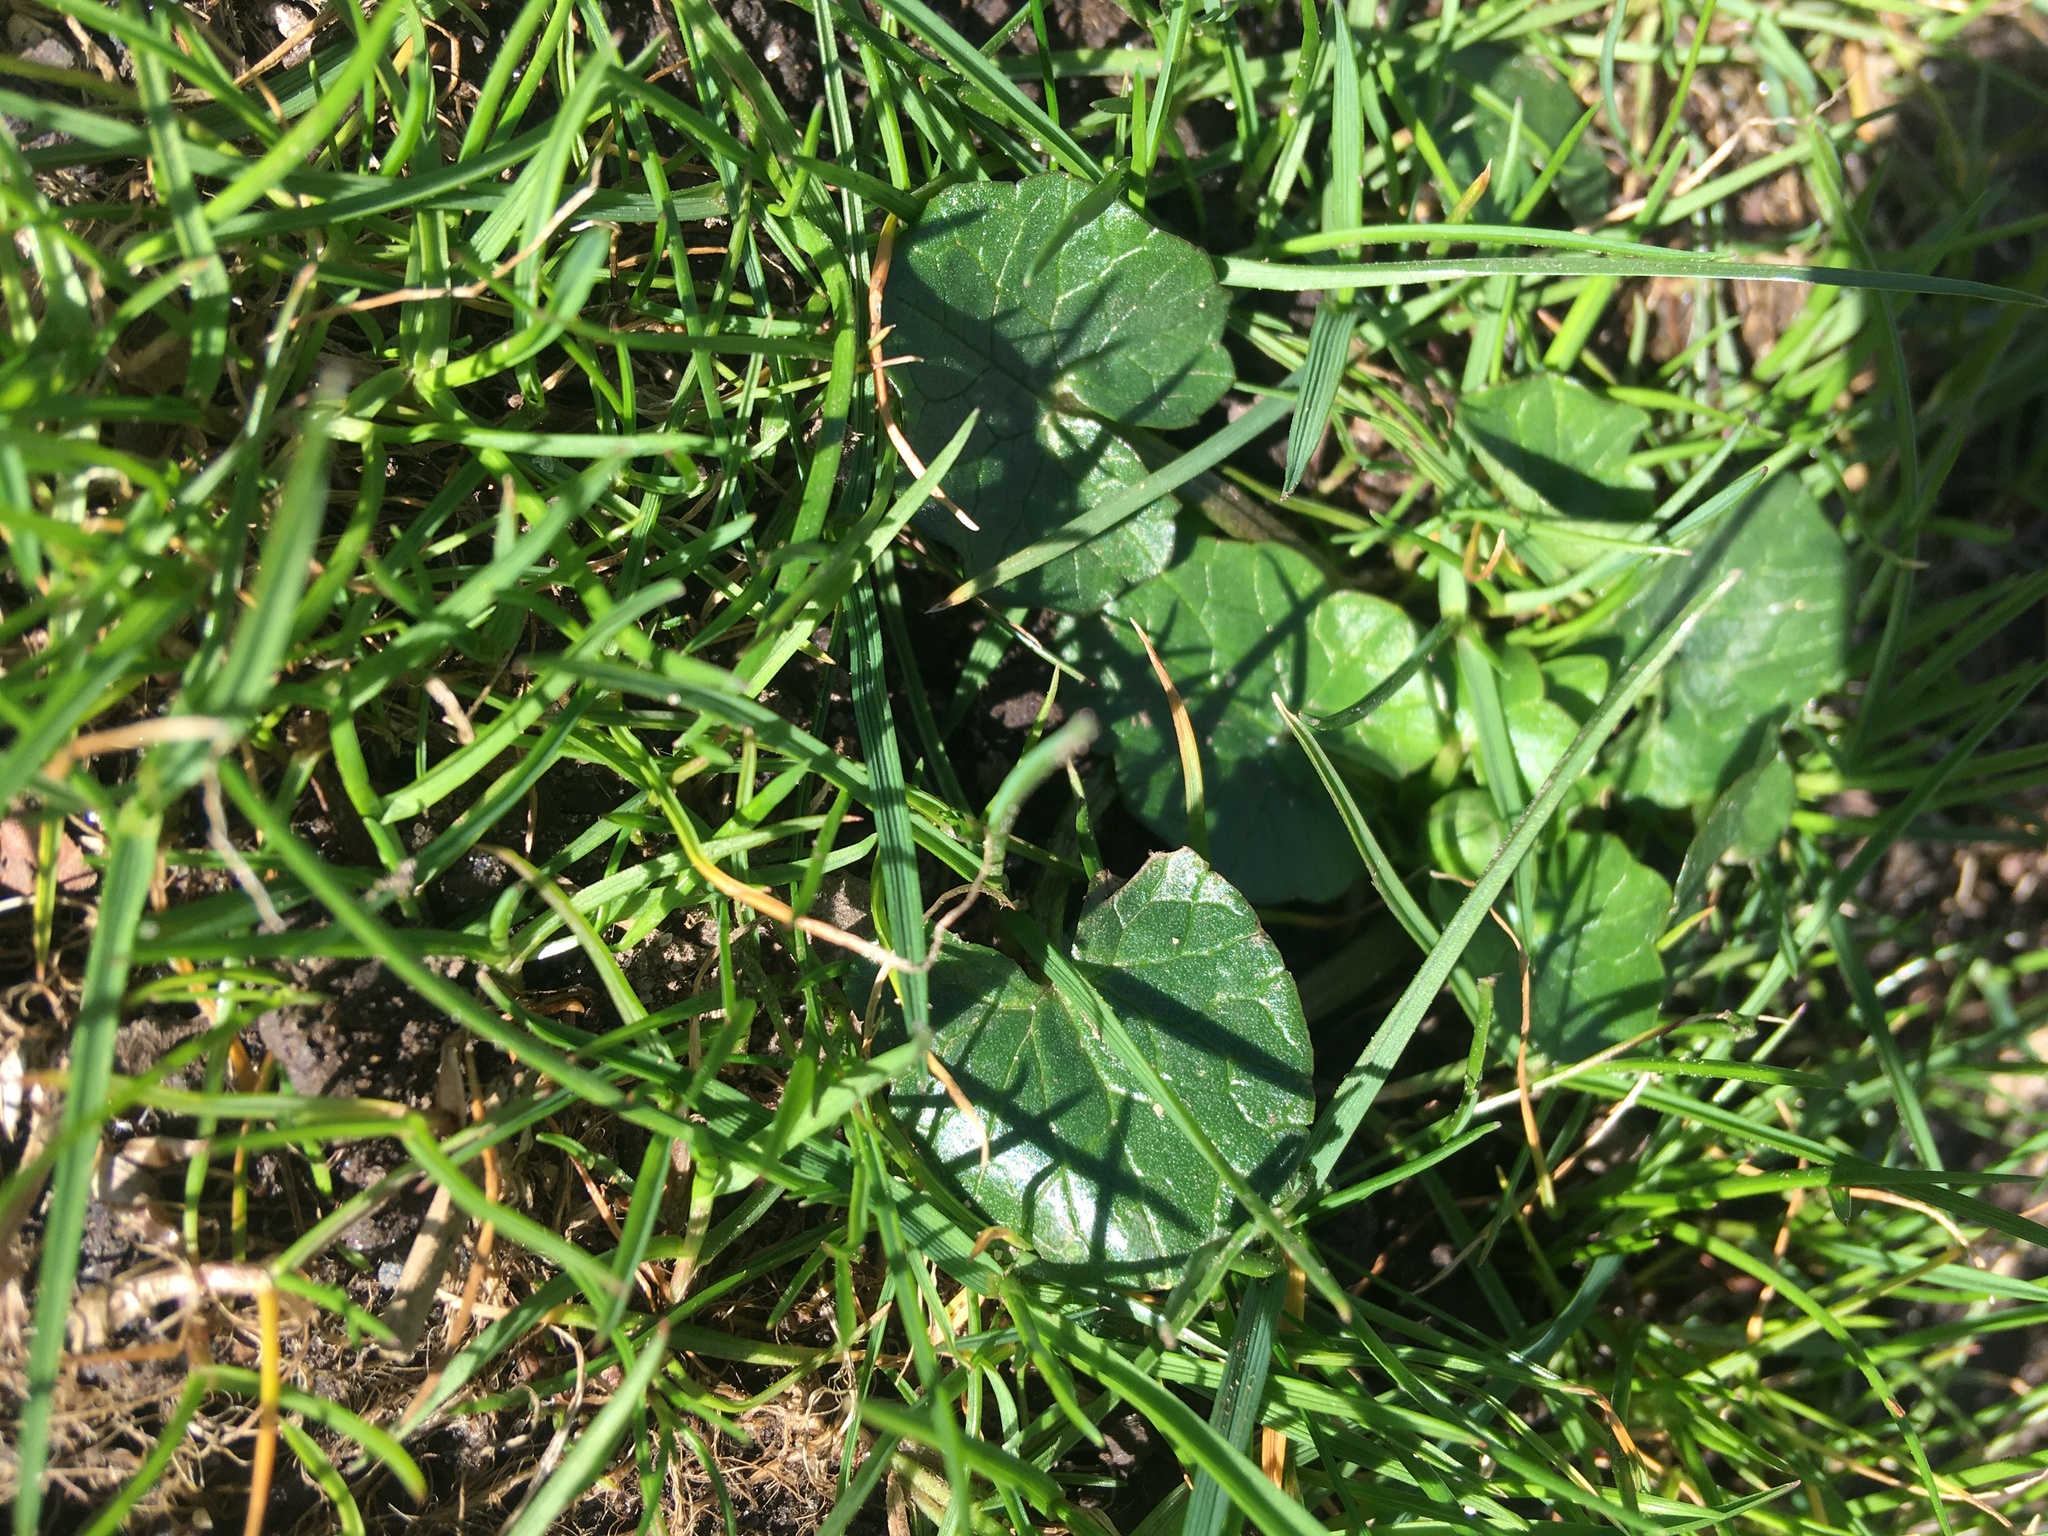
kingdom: Plantae
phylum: Tracheophyta
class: Magnoliopsida
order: Ranunculales
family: Ranunculaceae
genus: Ficaria
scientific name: Ficaria verna
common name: Lesser celandine
